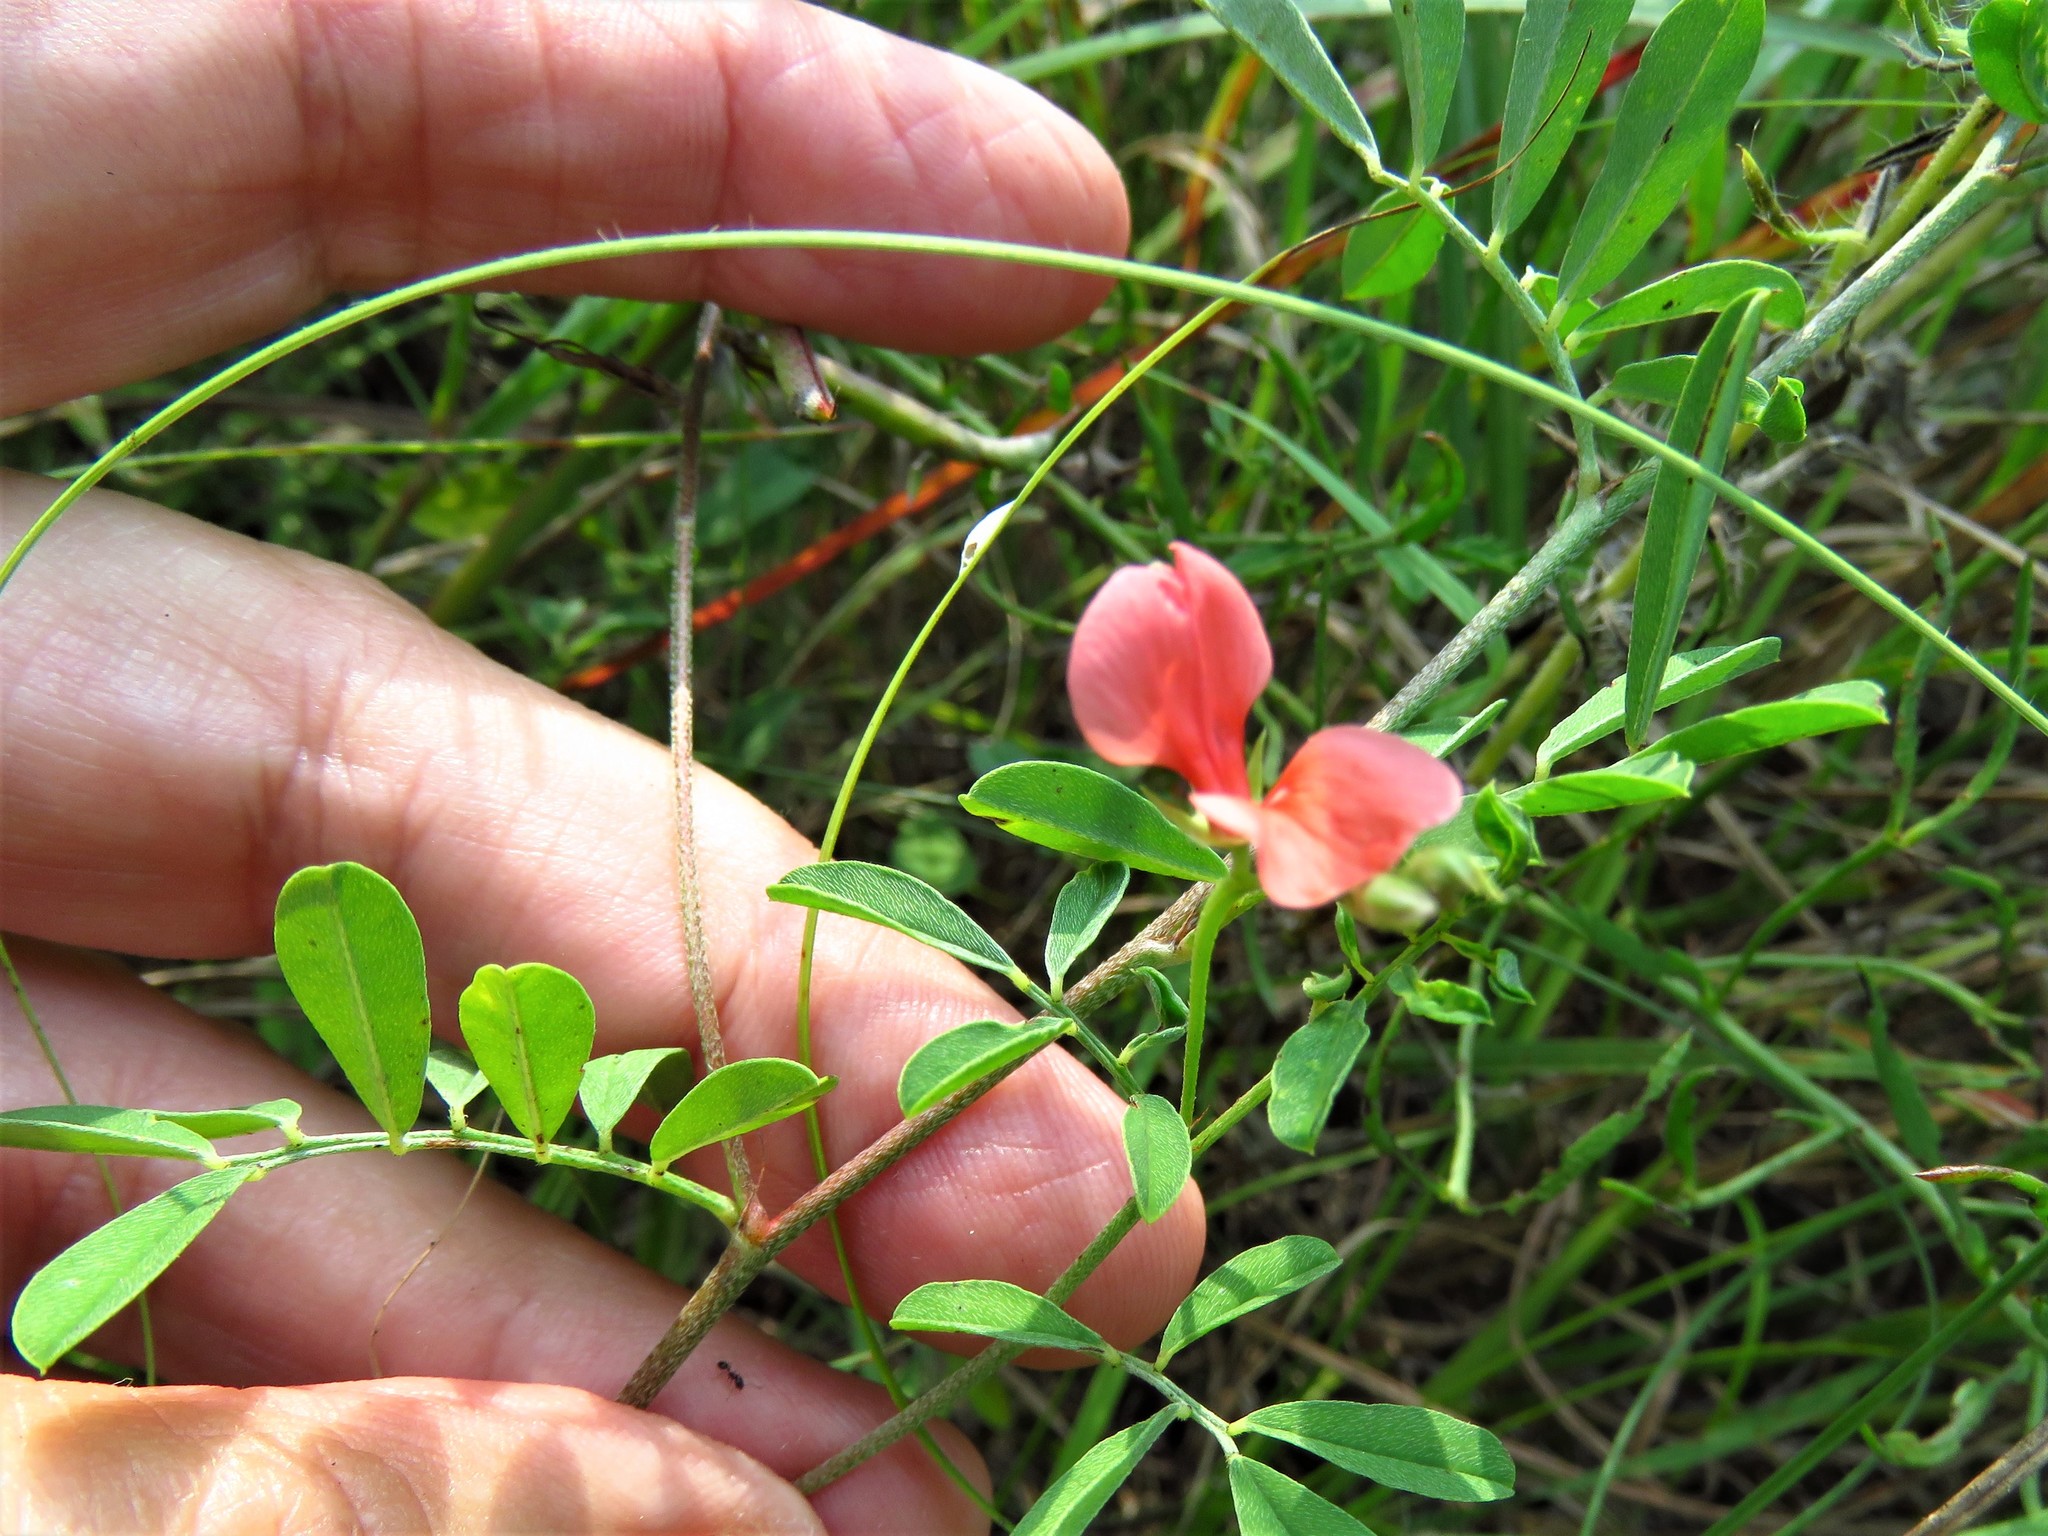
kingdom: Plantae
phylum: Tracheophyta
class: Magnoliopsida
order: Fabales
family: Fabaceae
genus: Indigofera
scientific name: Indigofera miniata
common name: Coast indigo
